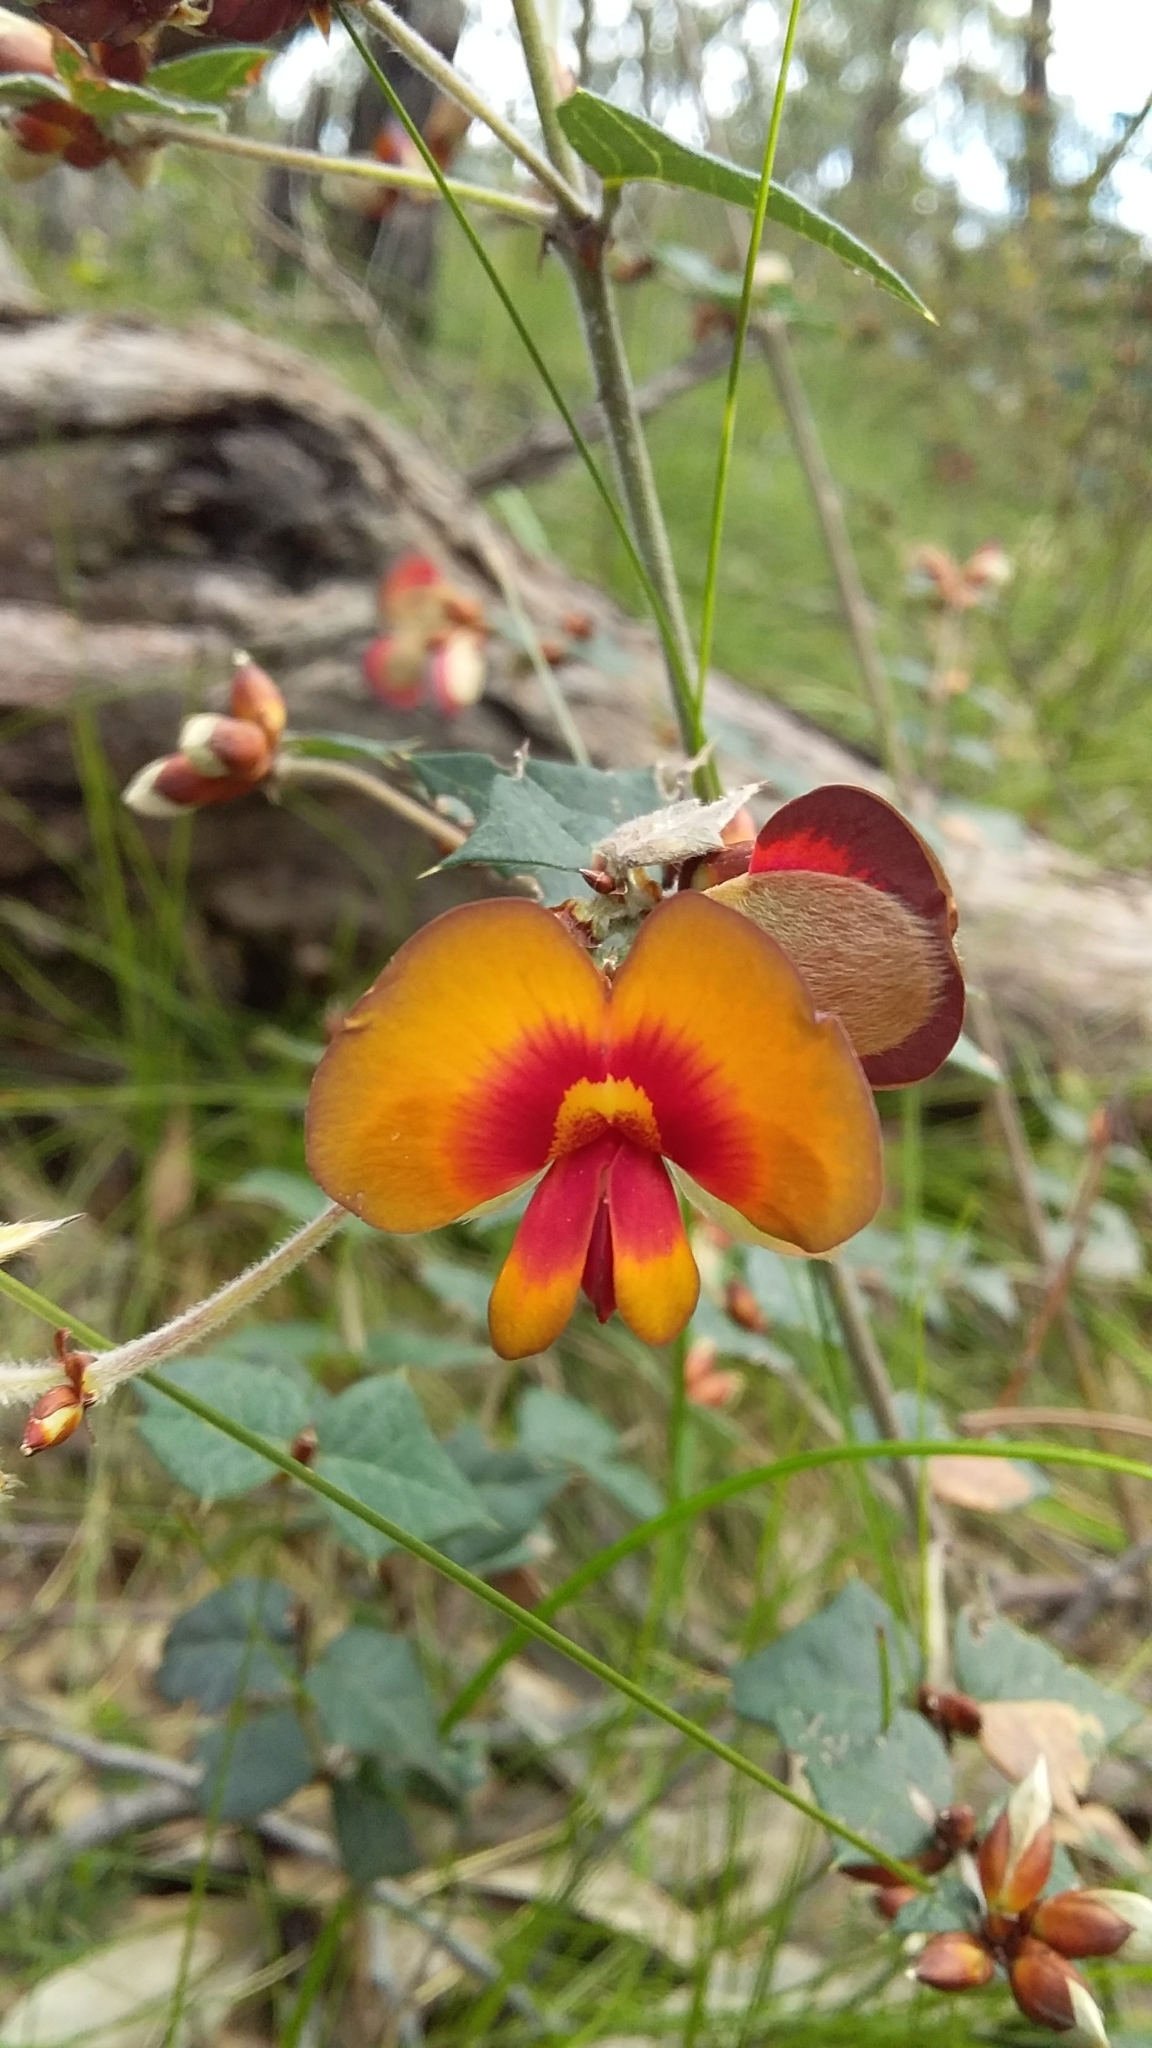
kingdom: Plantae
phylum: Tracheophyta
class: Magnoliopsida
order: Fabales
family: Fabaceae
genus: Platylobium
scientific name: Platylobium obtusangulum
